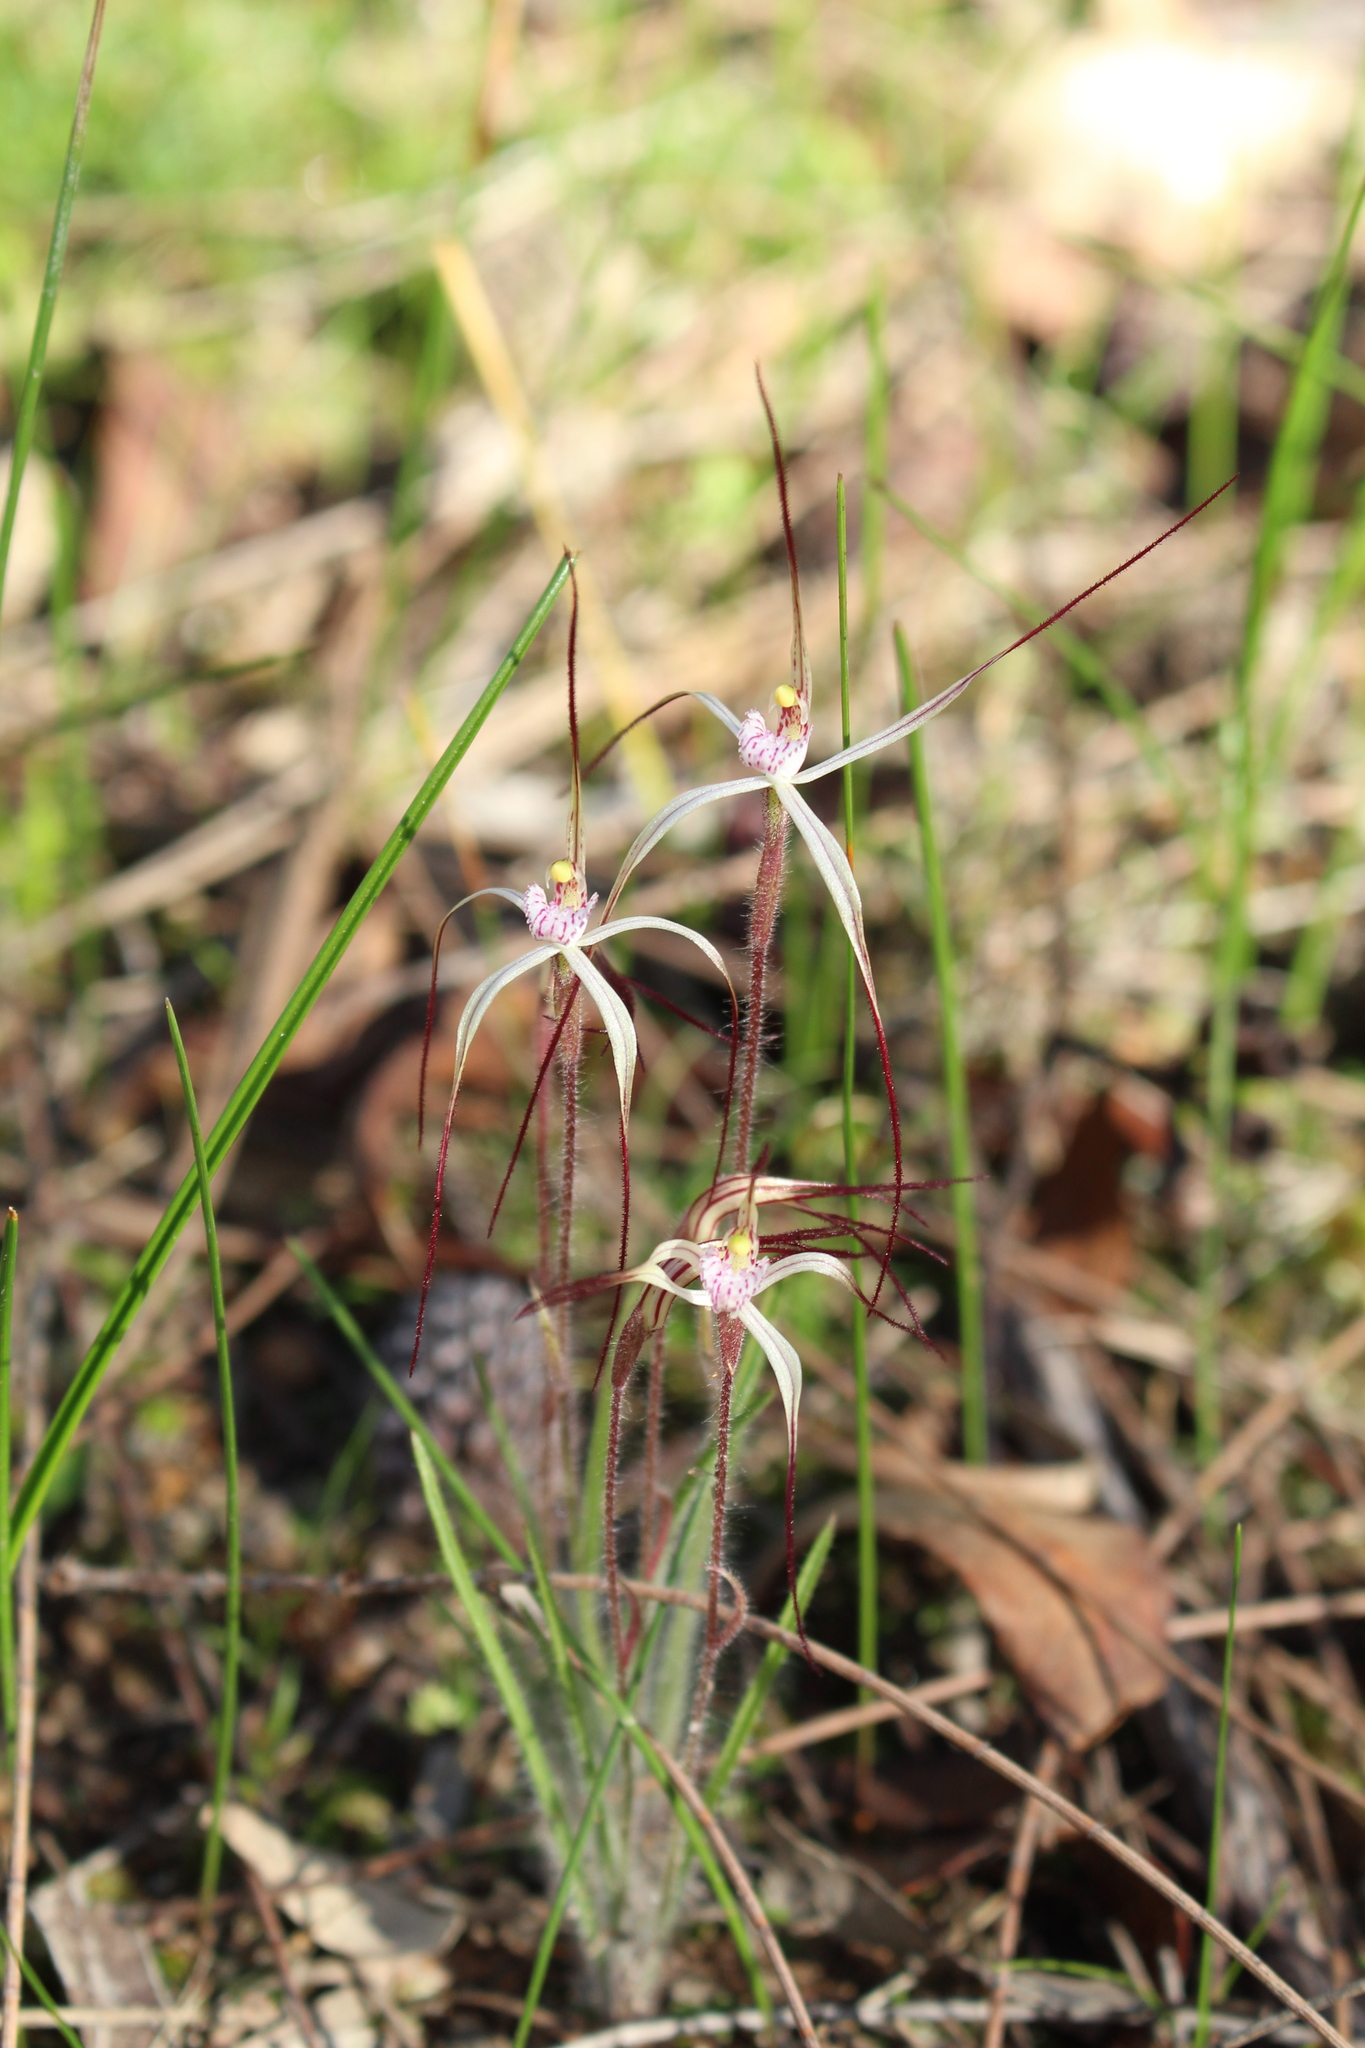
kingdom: Plantae
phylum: Tracheophyta
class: Liliopsida
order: Asparagales
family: Orchidaceae
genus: Caladenia
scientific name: Caladenia varians
